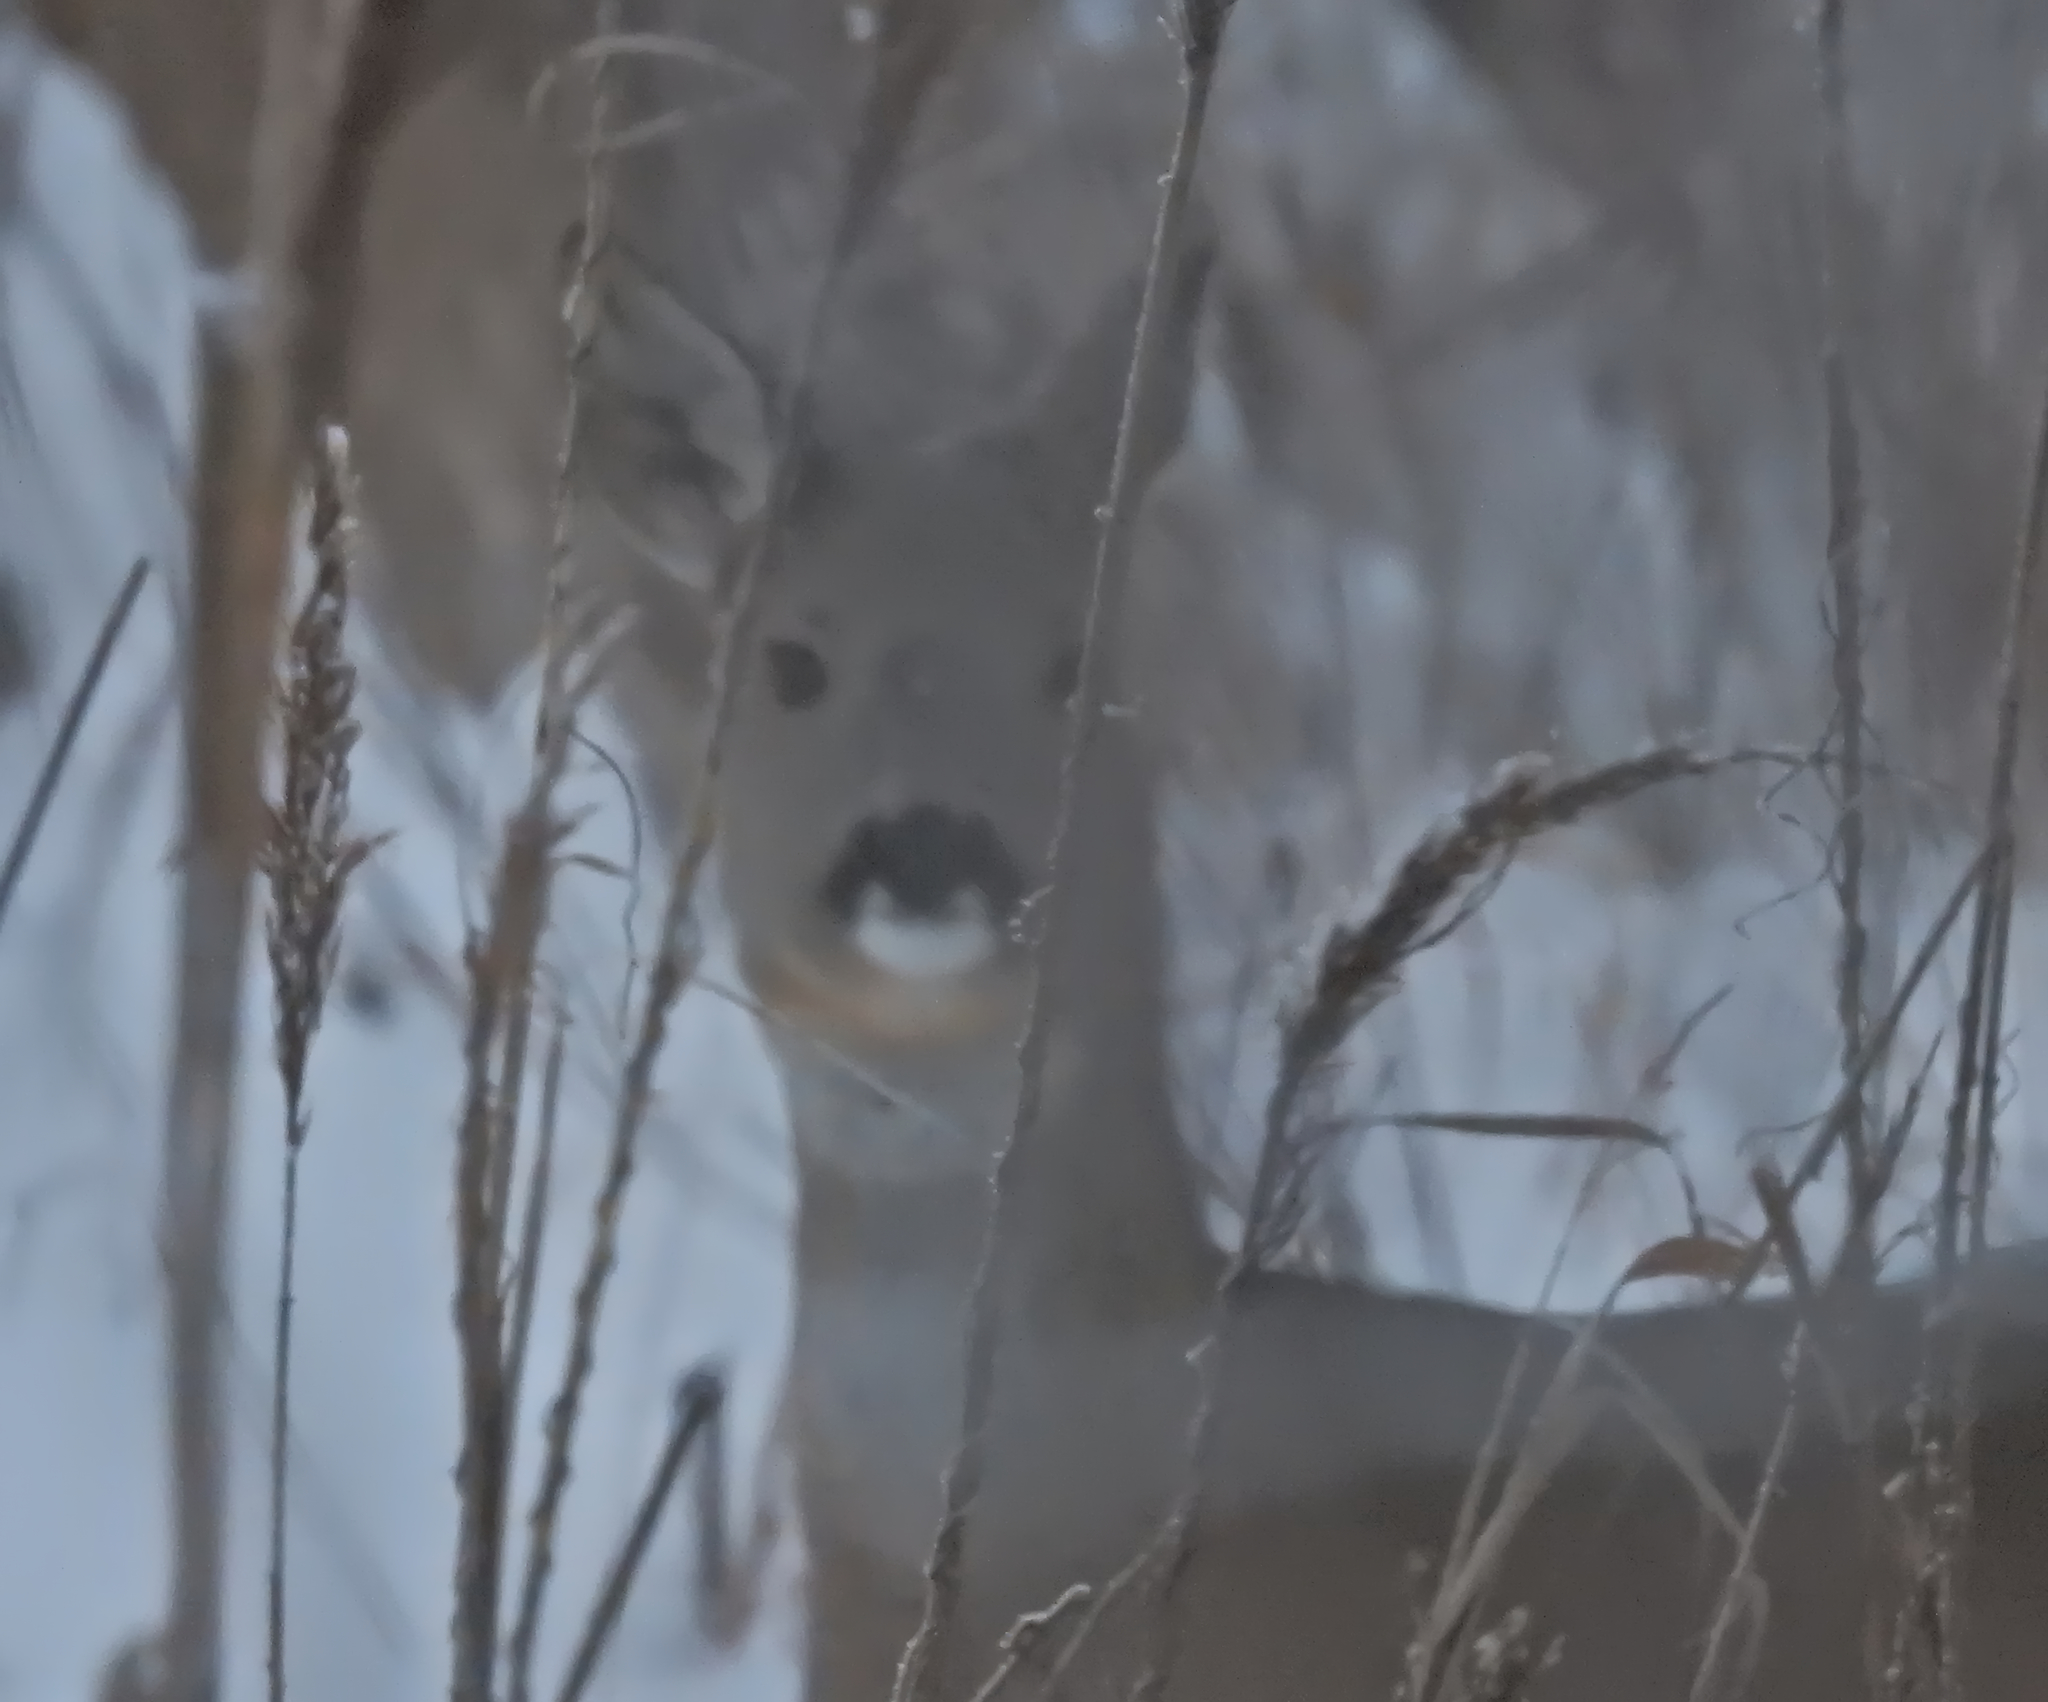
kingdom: Animalia
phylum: Chordata
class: Mammalia
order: Artiodactyla
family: Cervidae
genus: Capreolus
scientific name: Capreolus capreolus
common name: Western roe deer
